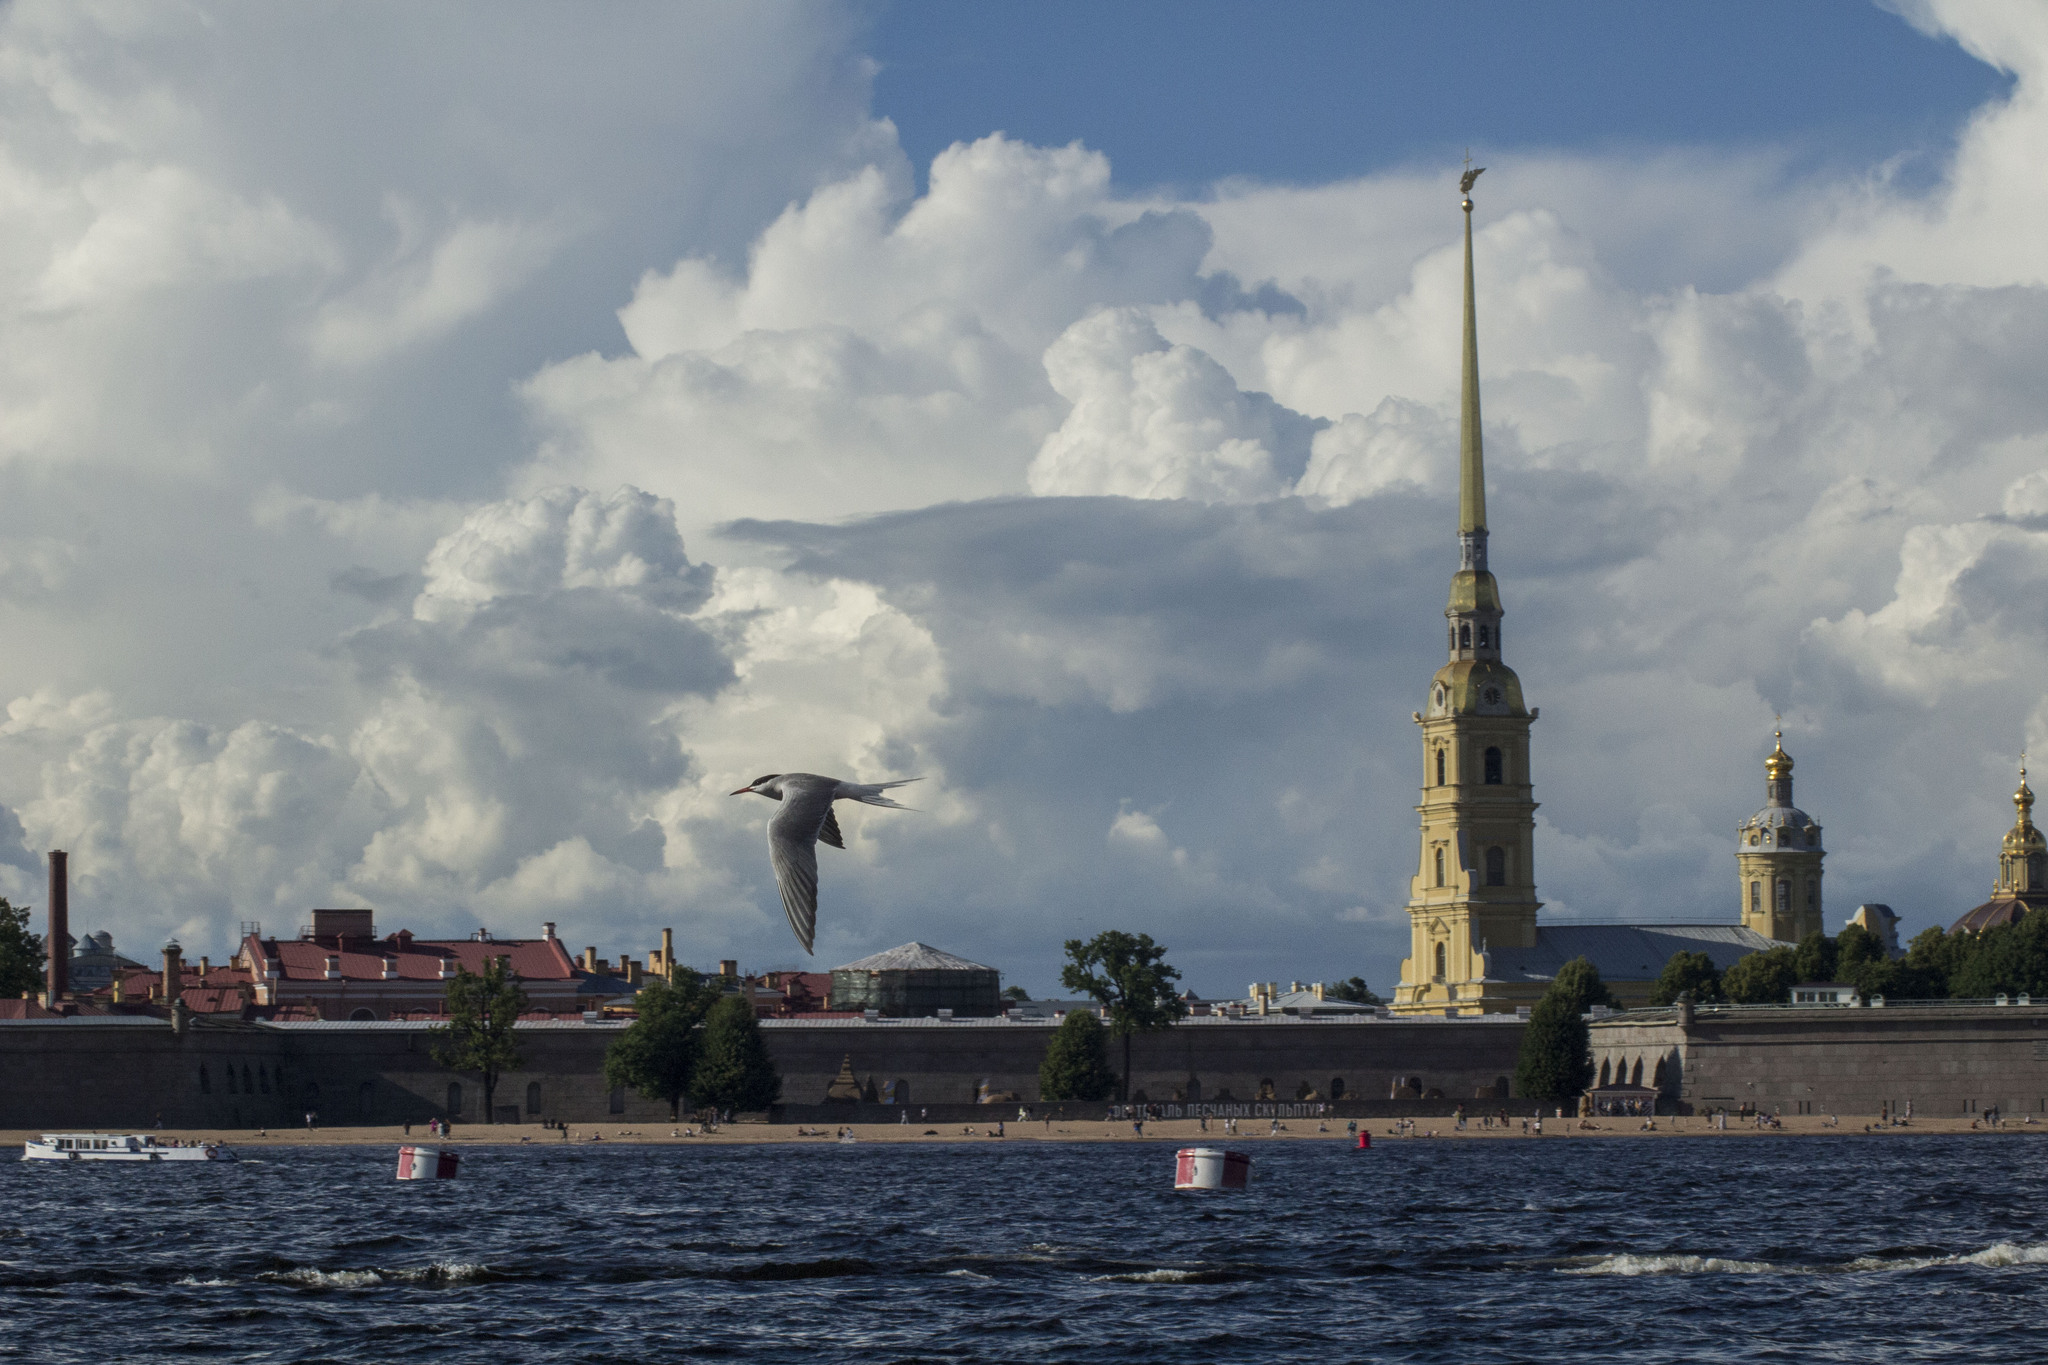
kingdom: Animalia
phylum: Chordata
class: Aves
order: Charadriiformes
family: Laridae
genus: Sterna
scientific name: Sterna hirundo
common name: Common tern
